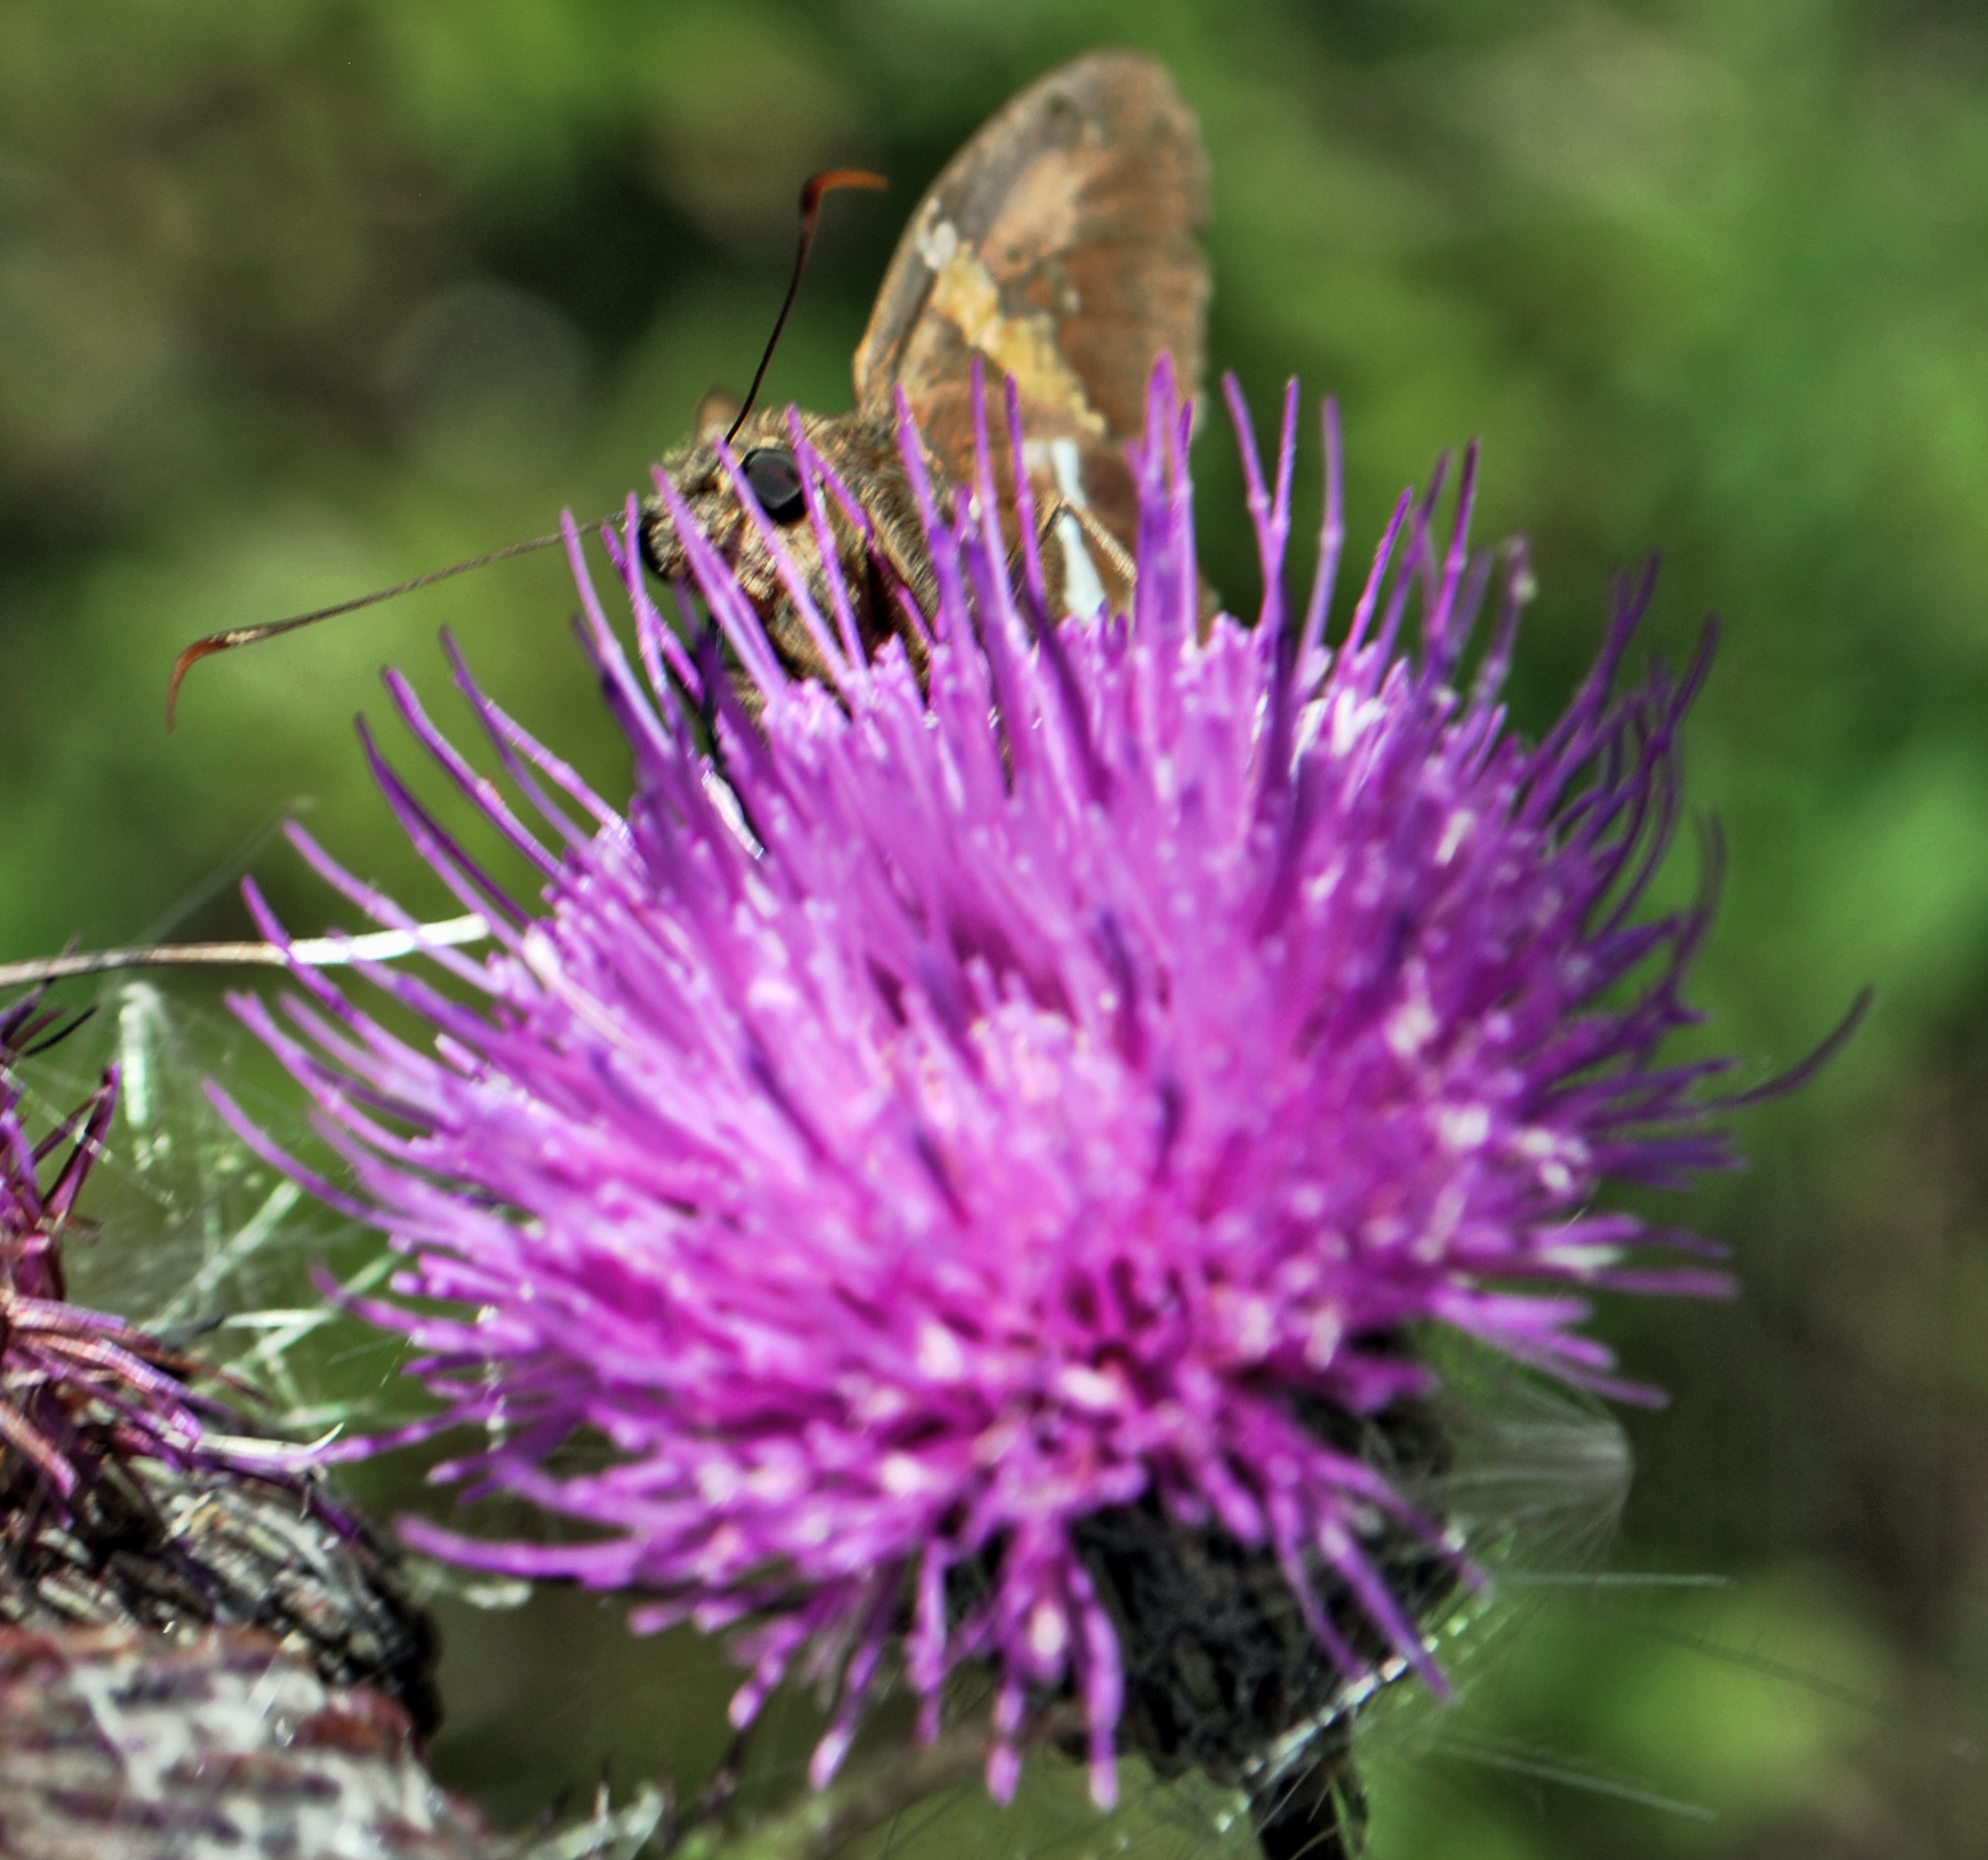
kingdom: Animalia
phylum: Arthropoda
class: Insecta
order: Lepidoptera
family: Hesperiidae
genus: Epargyreus
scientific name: Epargyreus clarus
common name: Silver-spotted skipper
